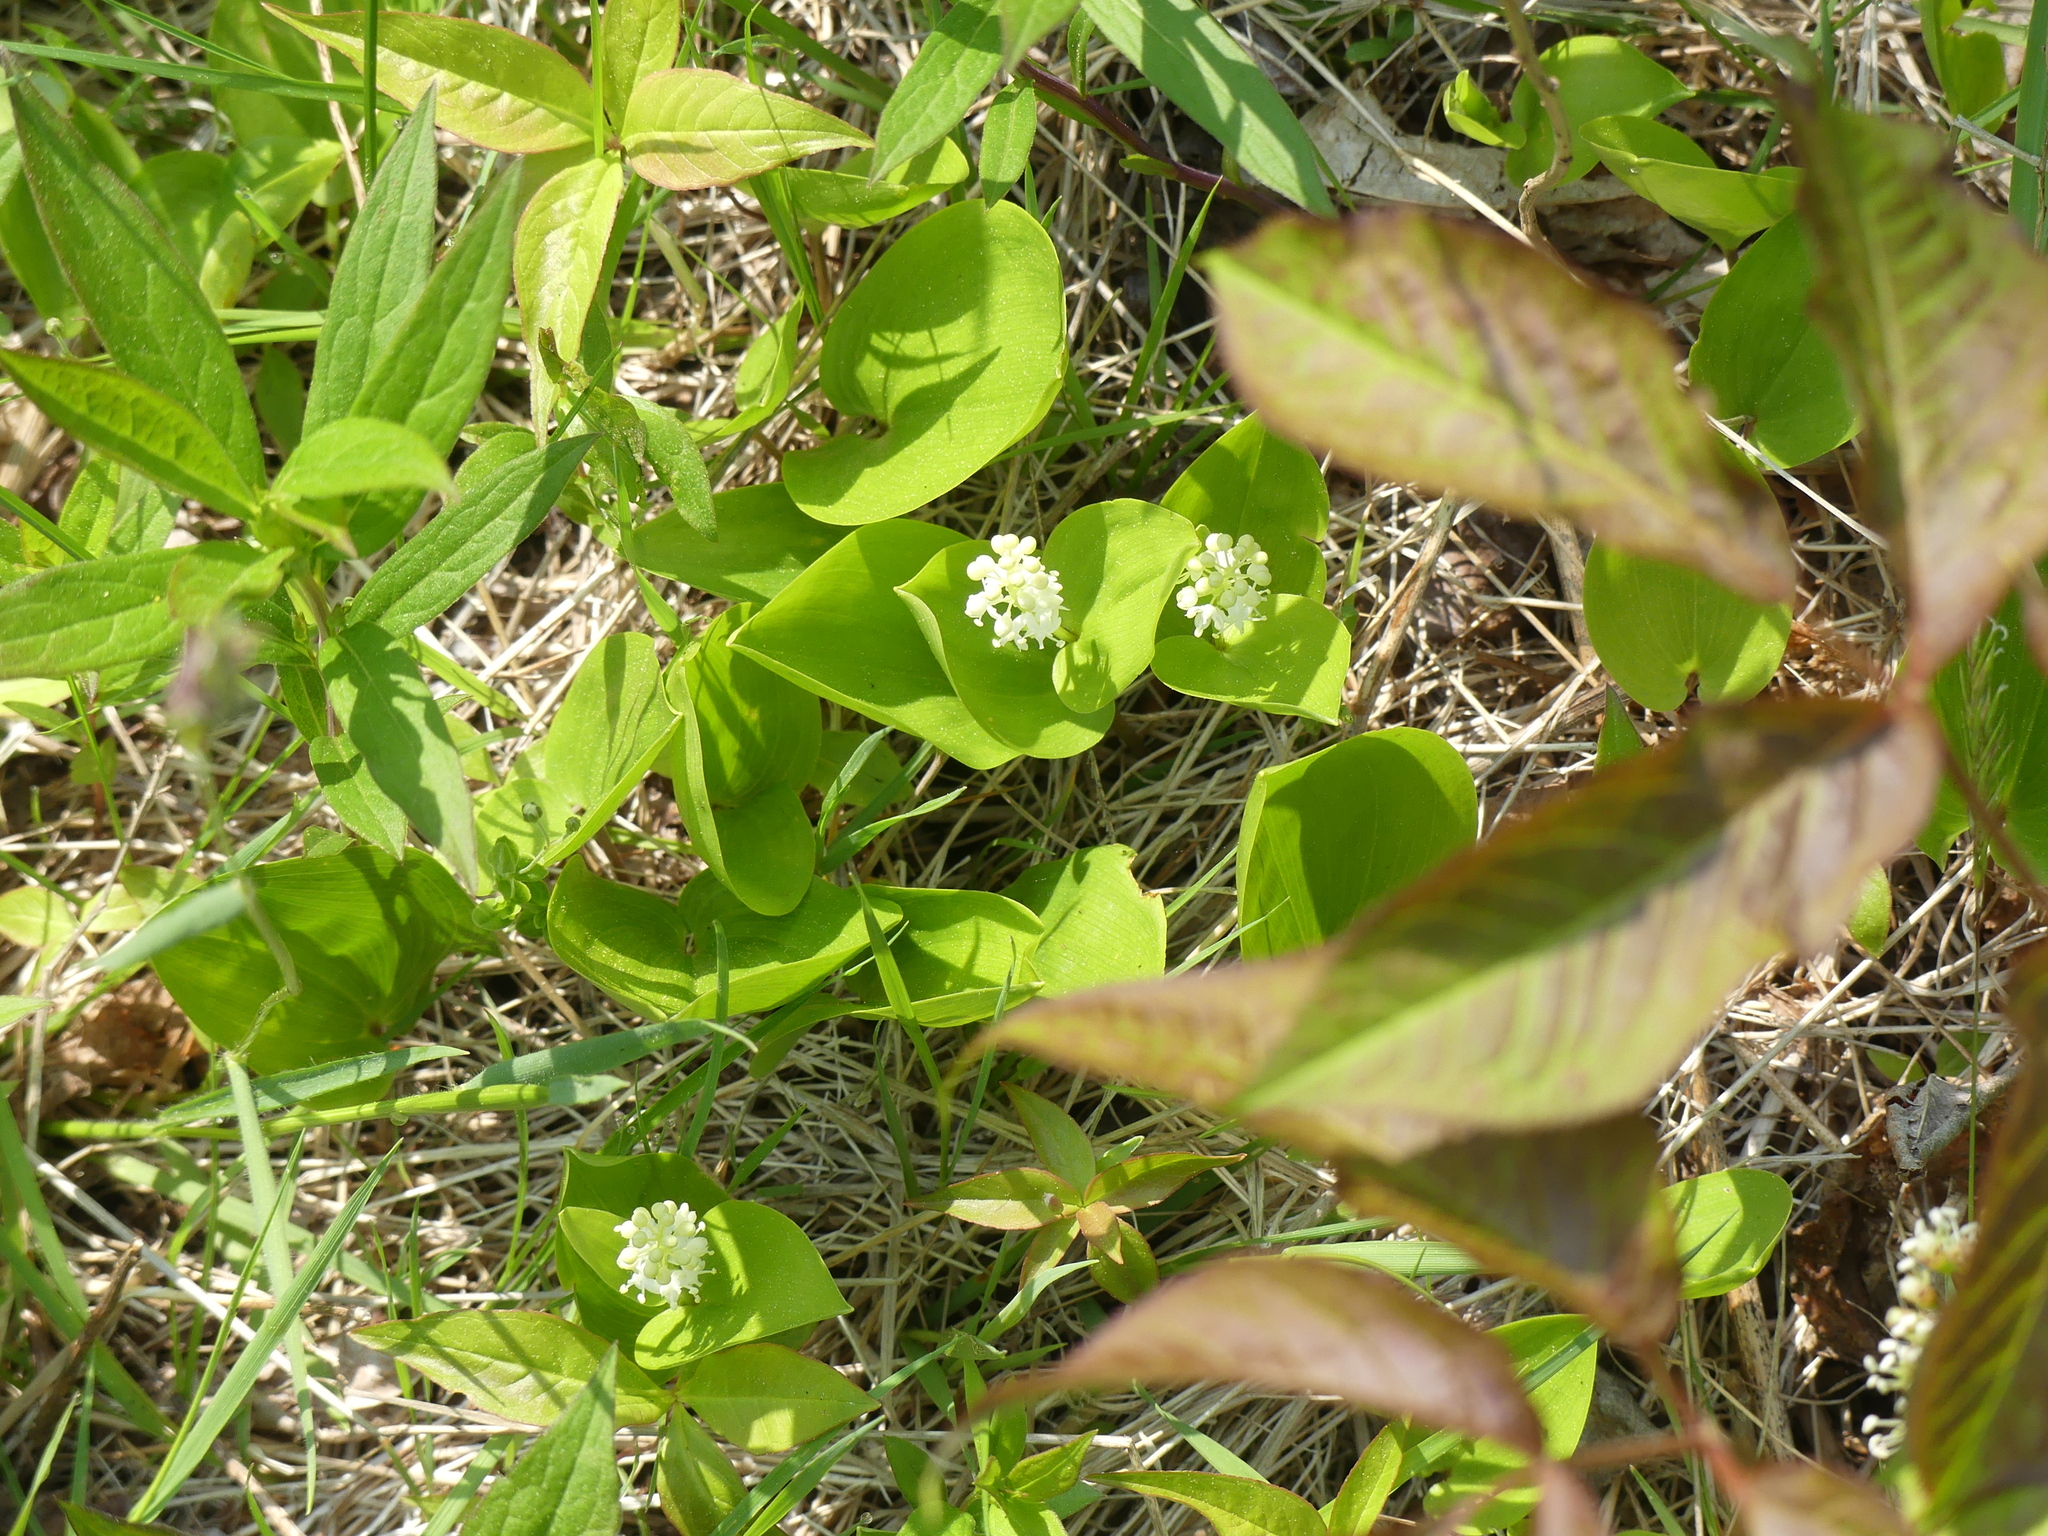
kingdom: Plantae
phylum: Tracheophyta
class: Liliopsida
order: Asparagales
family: Asparagaceae
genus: Maianthemum
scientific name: Maianthemum canadense
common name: False lily-of-the-valley
